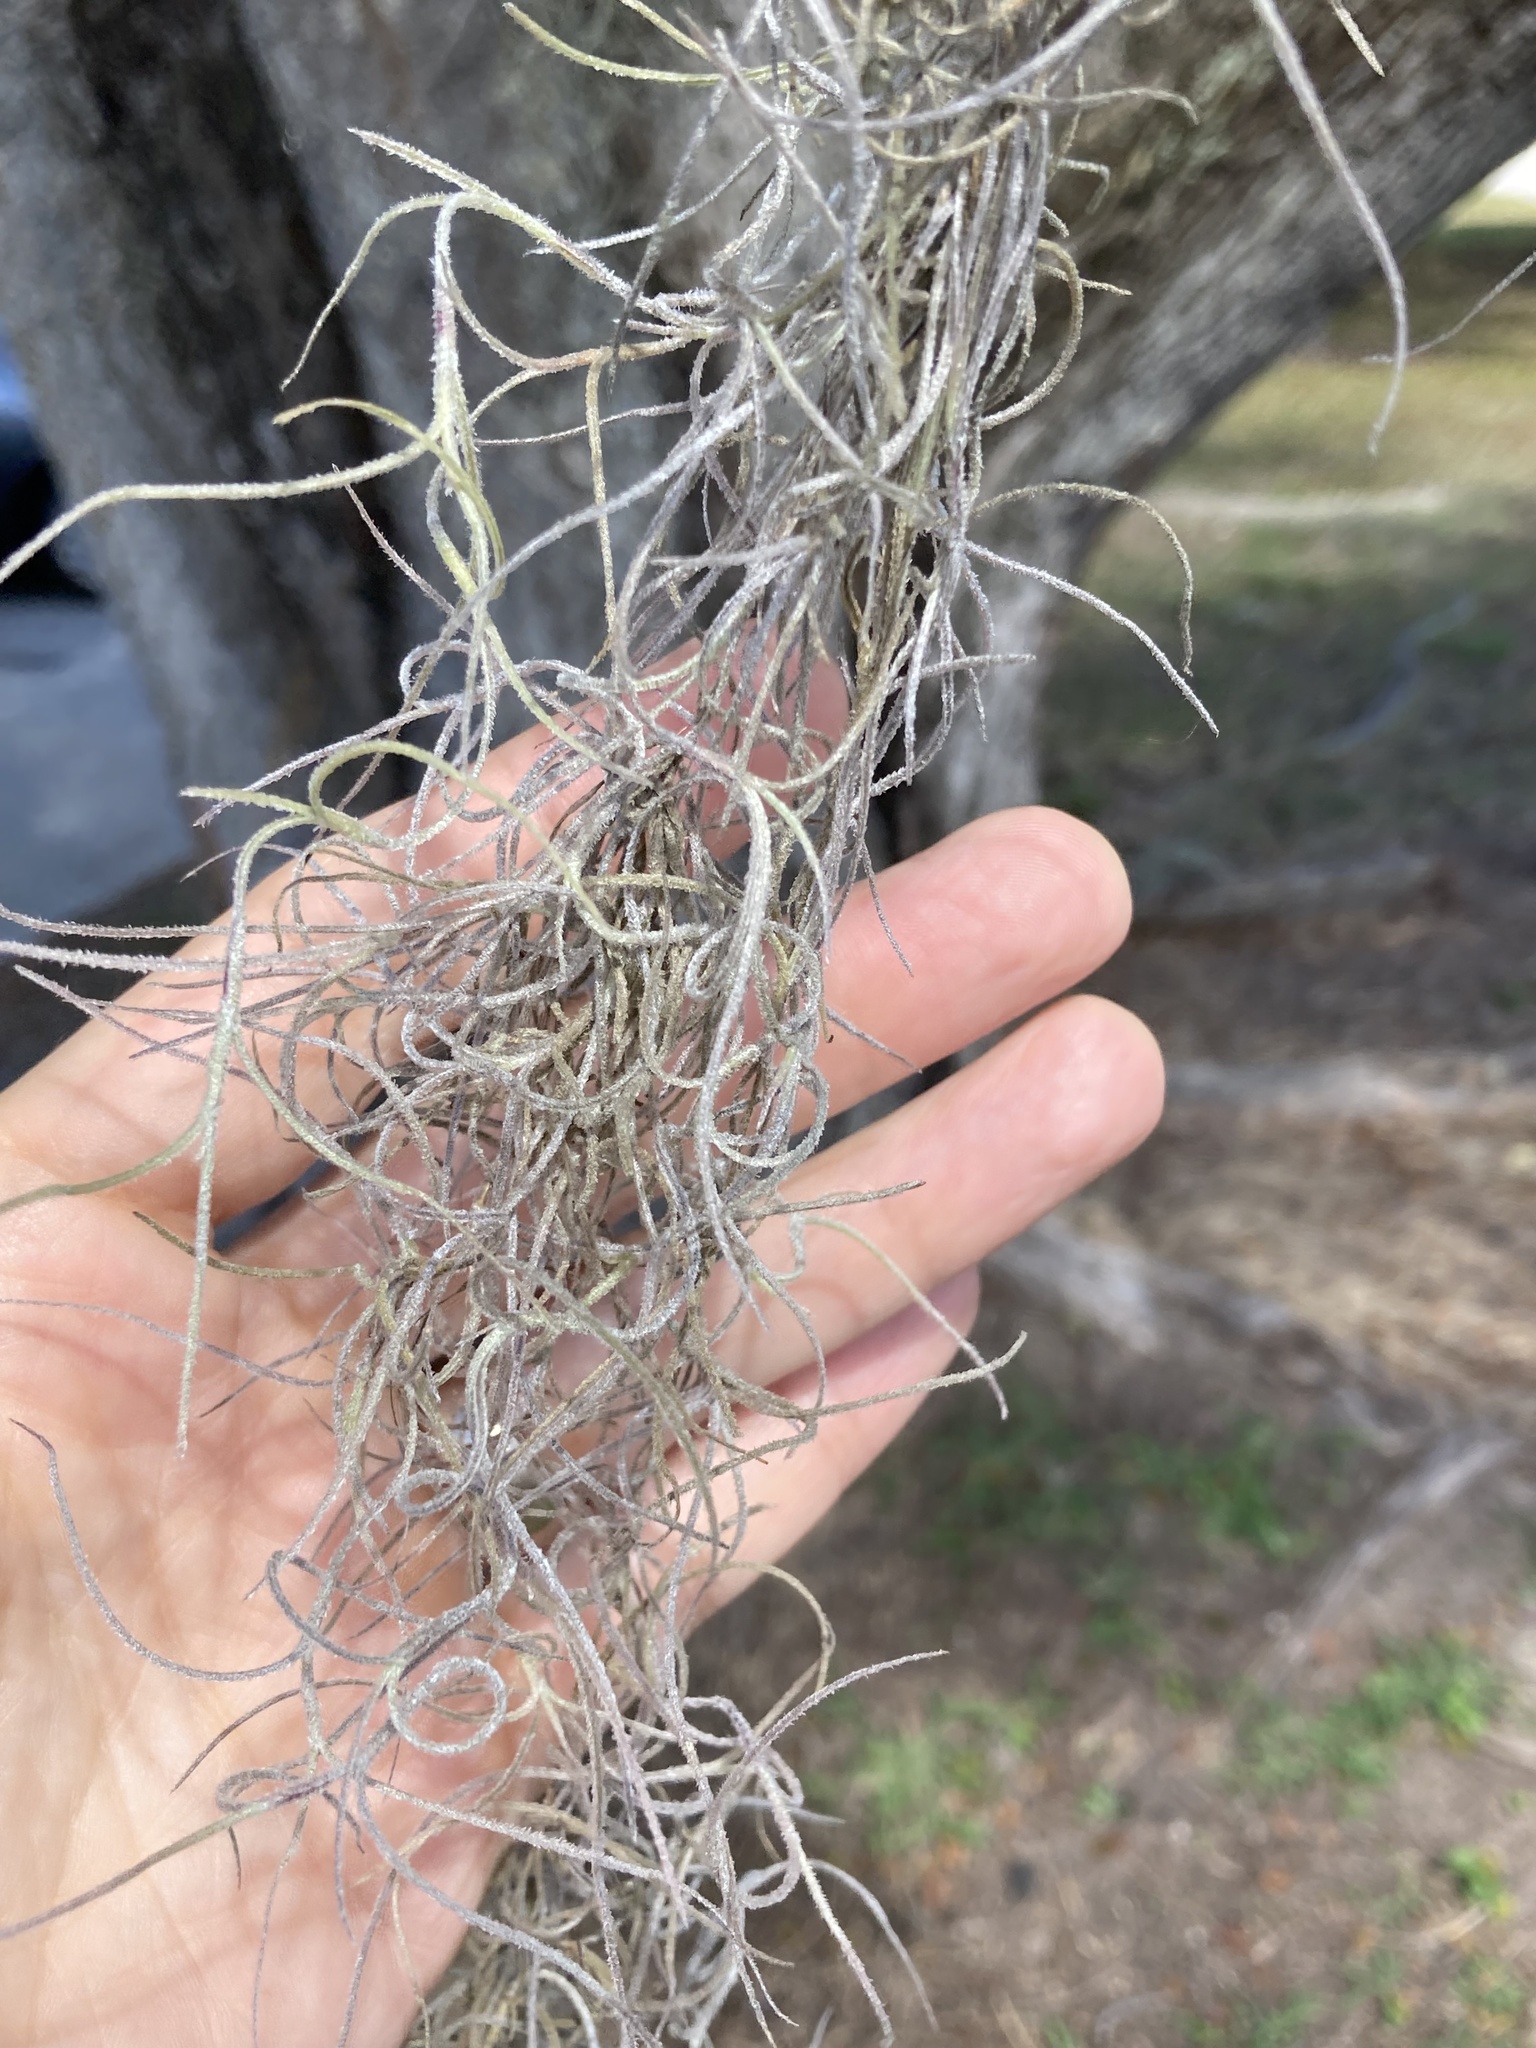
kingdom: Plantae
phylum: Tracheophyta
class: Liliopsida
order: Poales
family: Bromeliaceae
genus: Tillandsia
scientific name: Tillandsia usneoides
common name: Spanish moss
